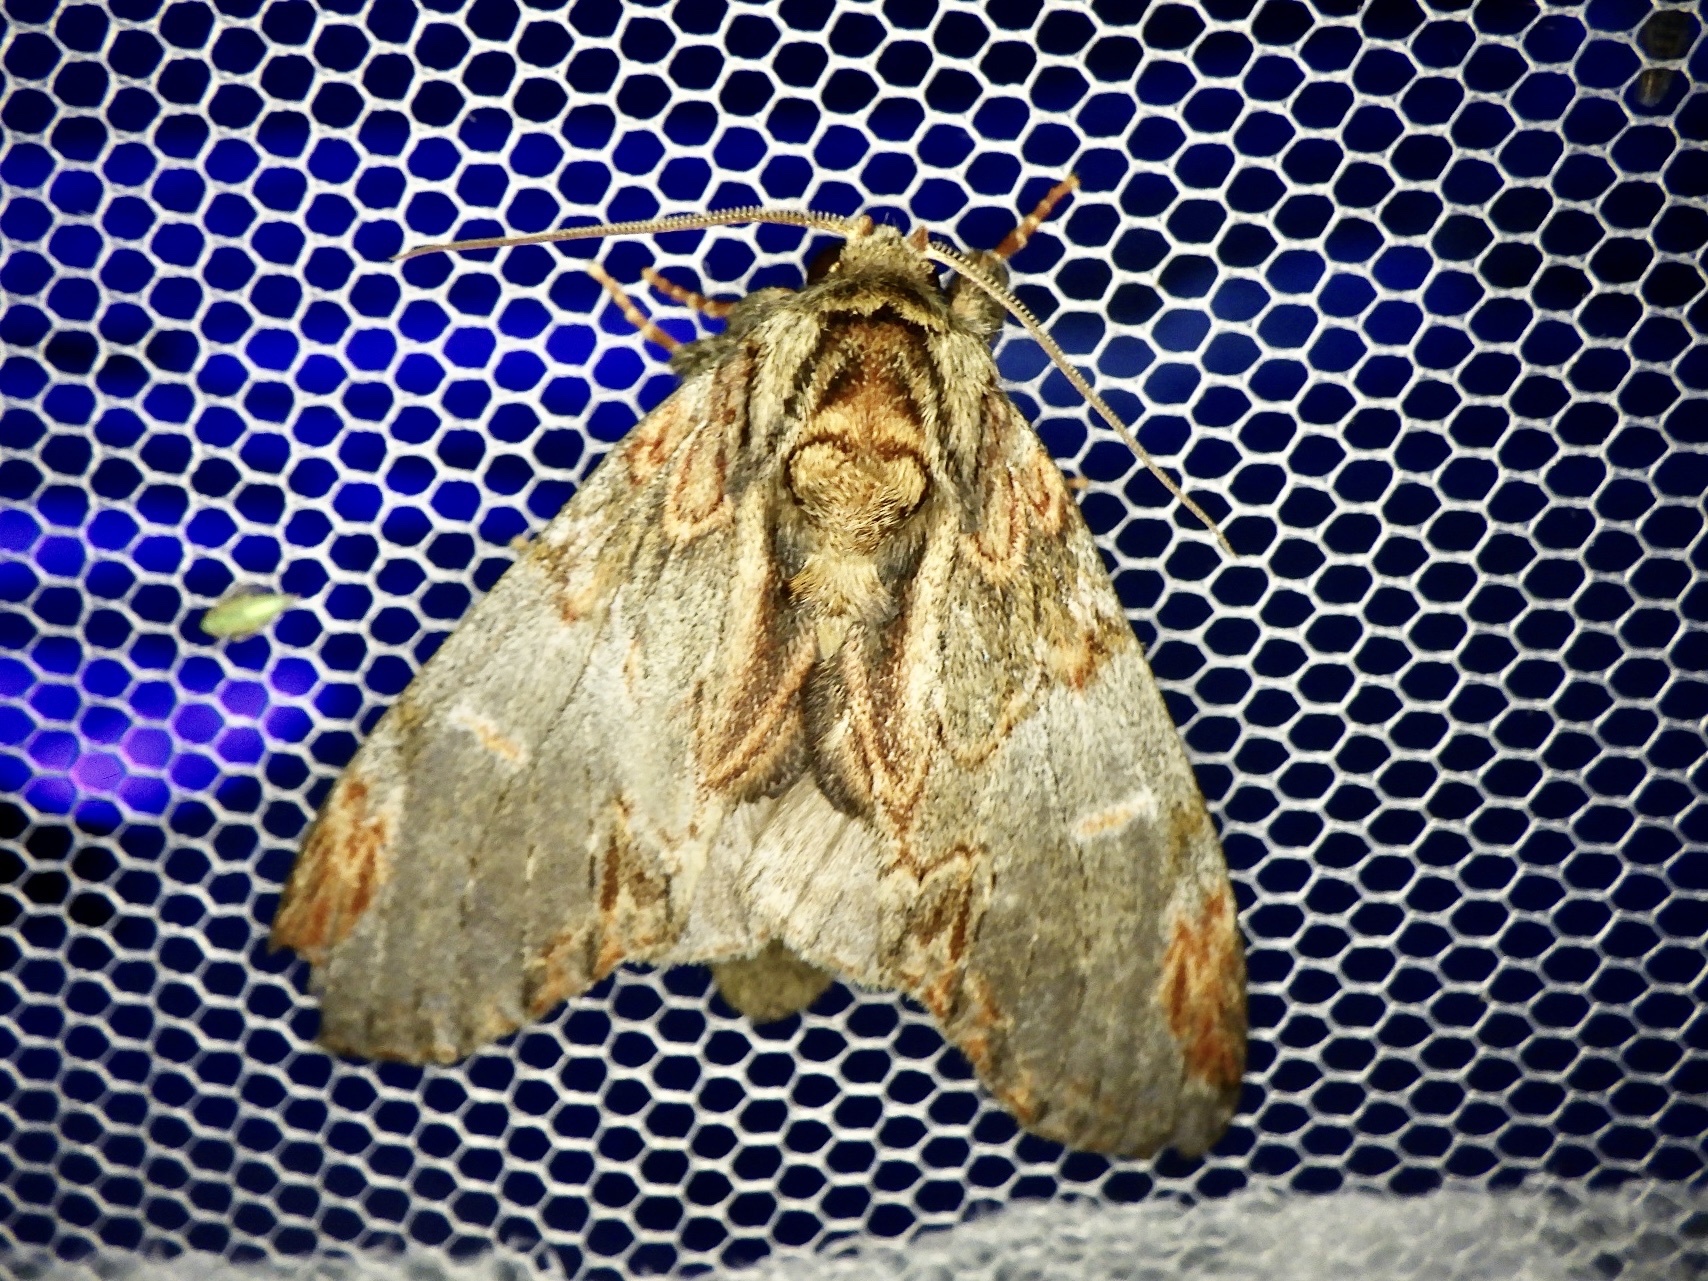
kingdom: Animalia
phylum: Arthropoda
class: Insecta
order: Lepidoptera
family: Notodontidae
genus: Peridea
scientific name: Peridea graeseri
